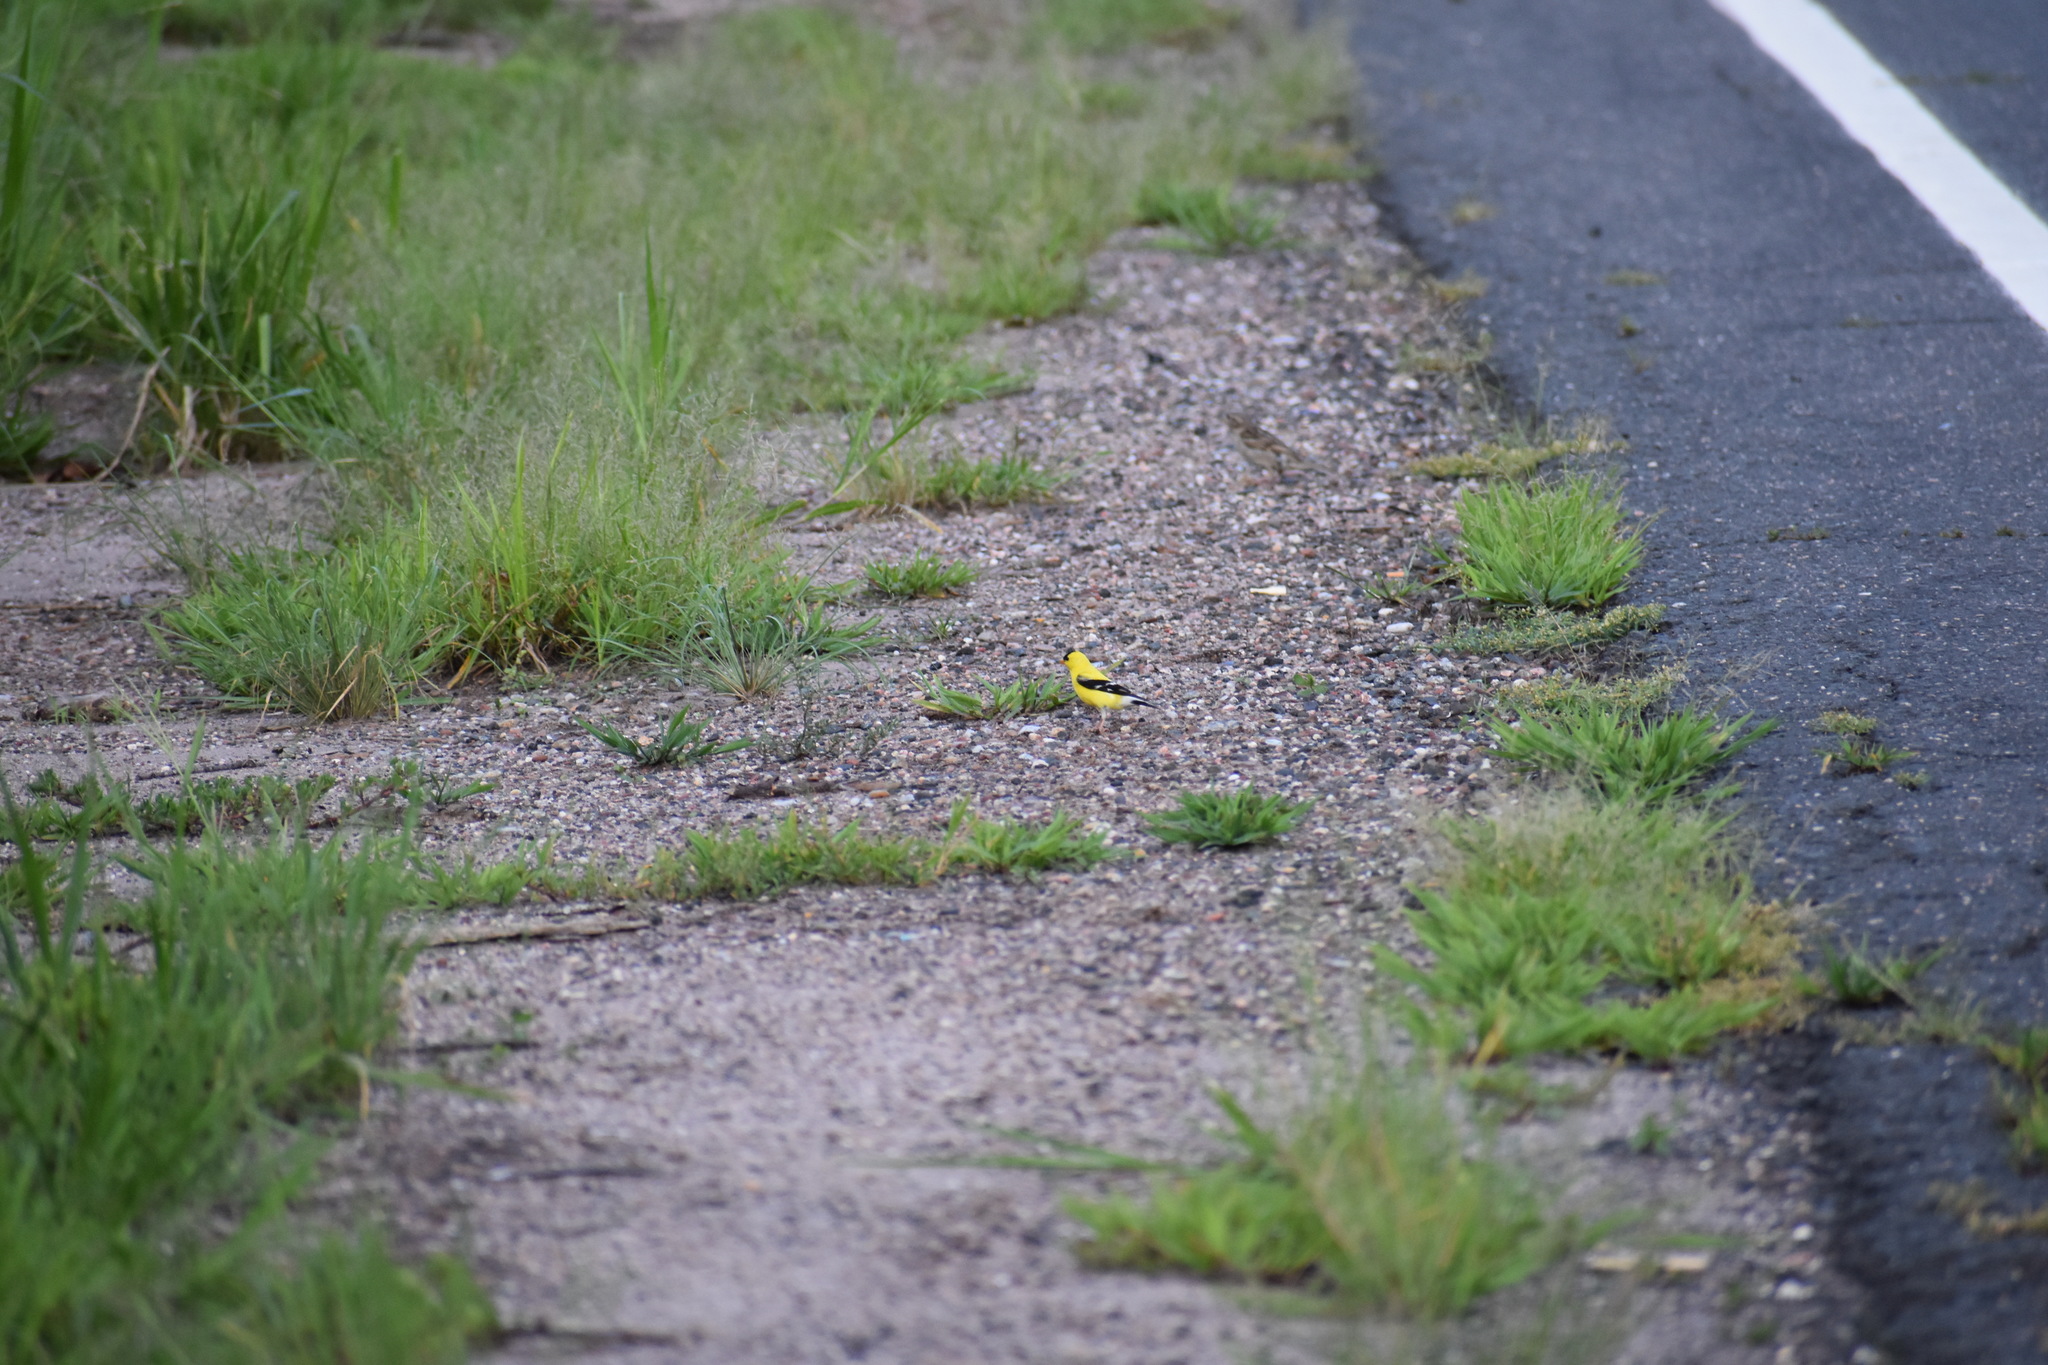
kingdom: Animalia
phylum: Chordata
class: Aves
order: Passeriformes
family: Fringillidae
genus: Spinus
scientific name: Spinus tristis
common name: American goldfinch
